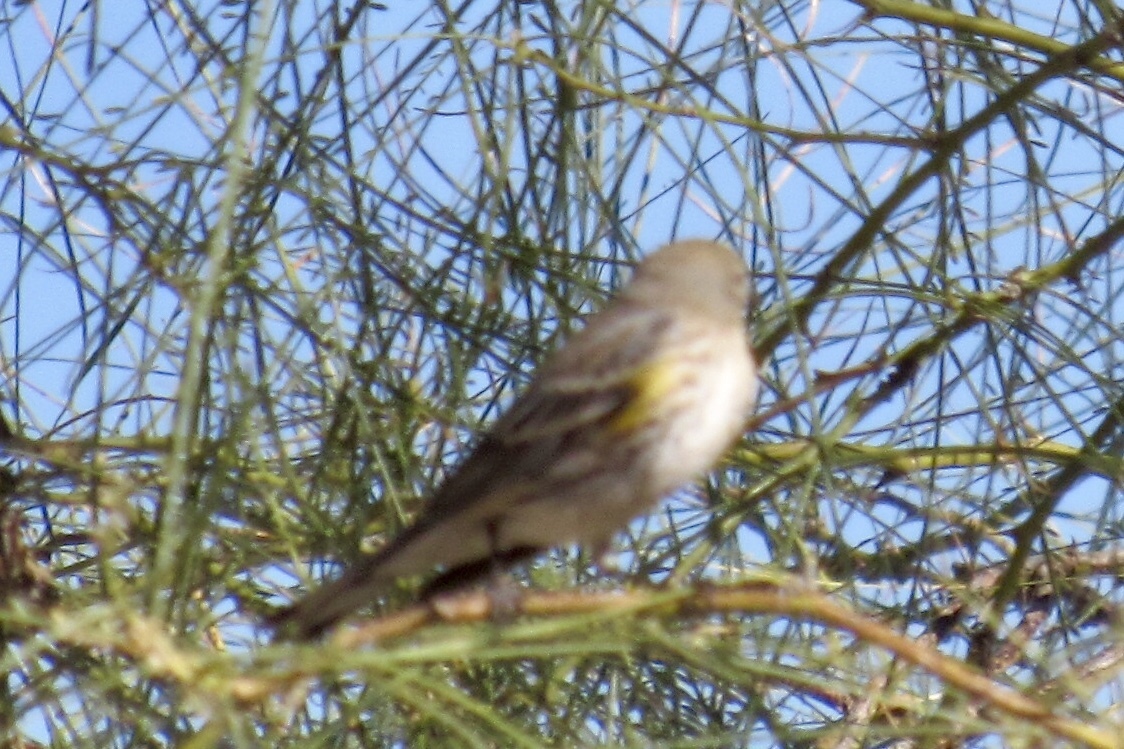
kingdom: Animalia
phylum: Chordata
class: Aves
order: Passeriformes
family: Parulidae
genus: Setophaga
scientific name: Setophaga coronata
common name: Myrtle warbler
